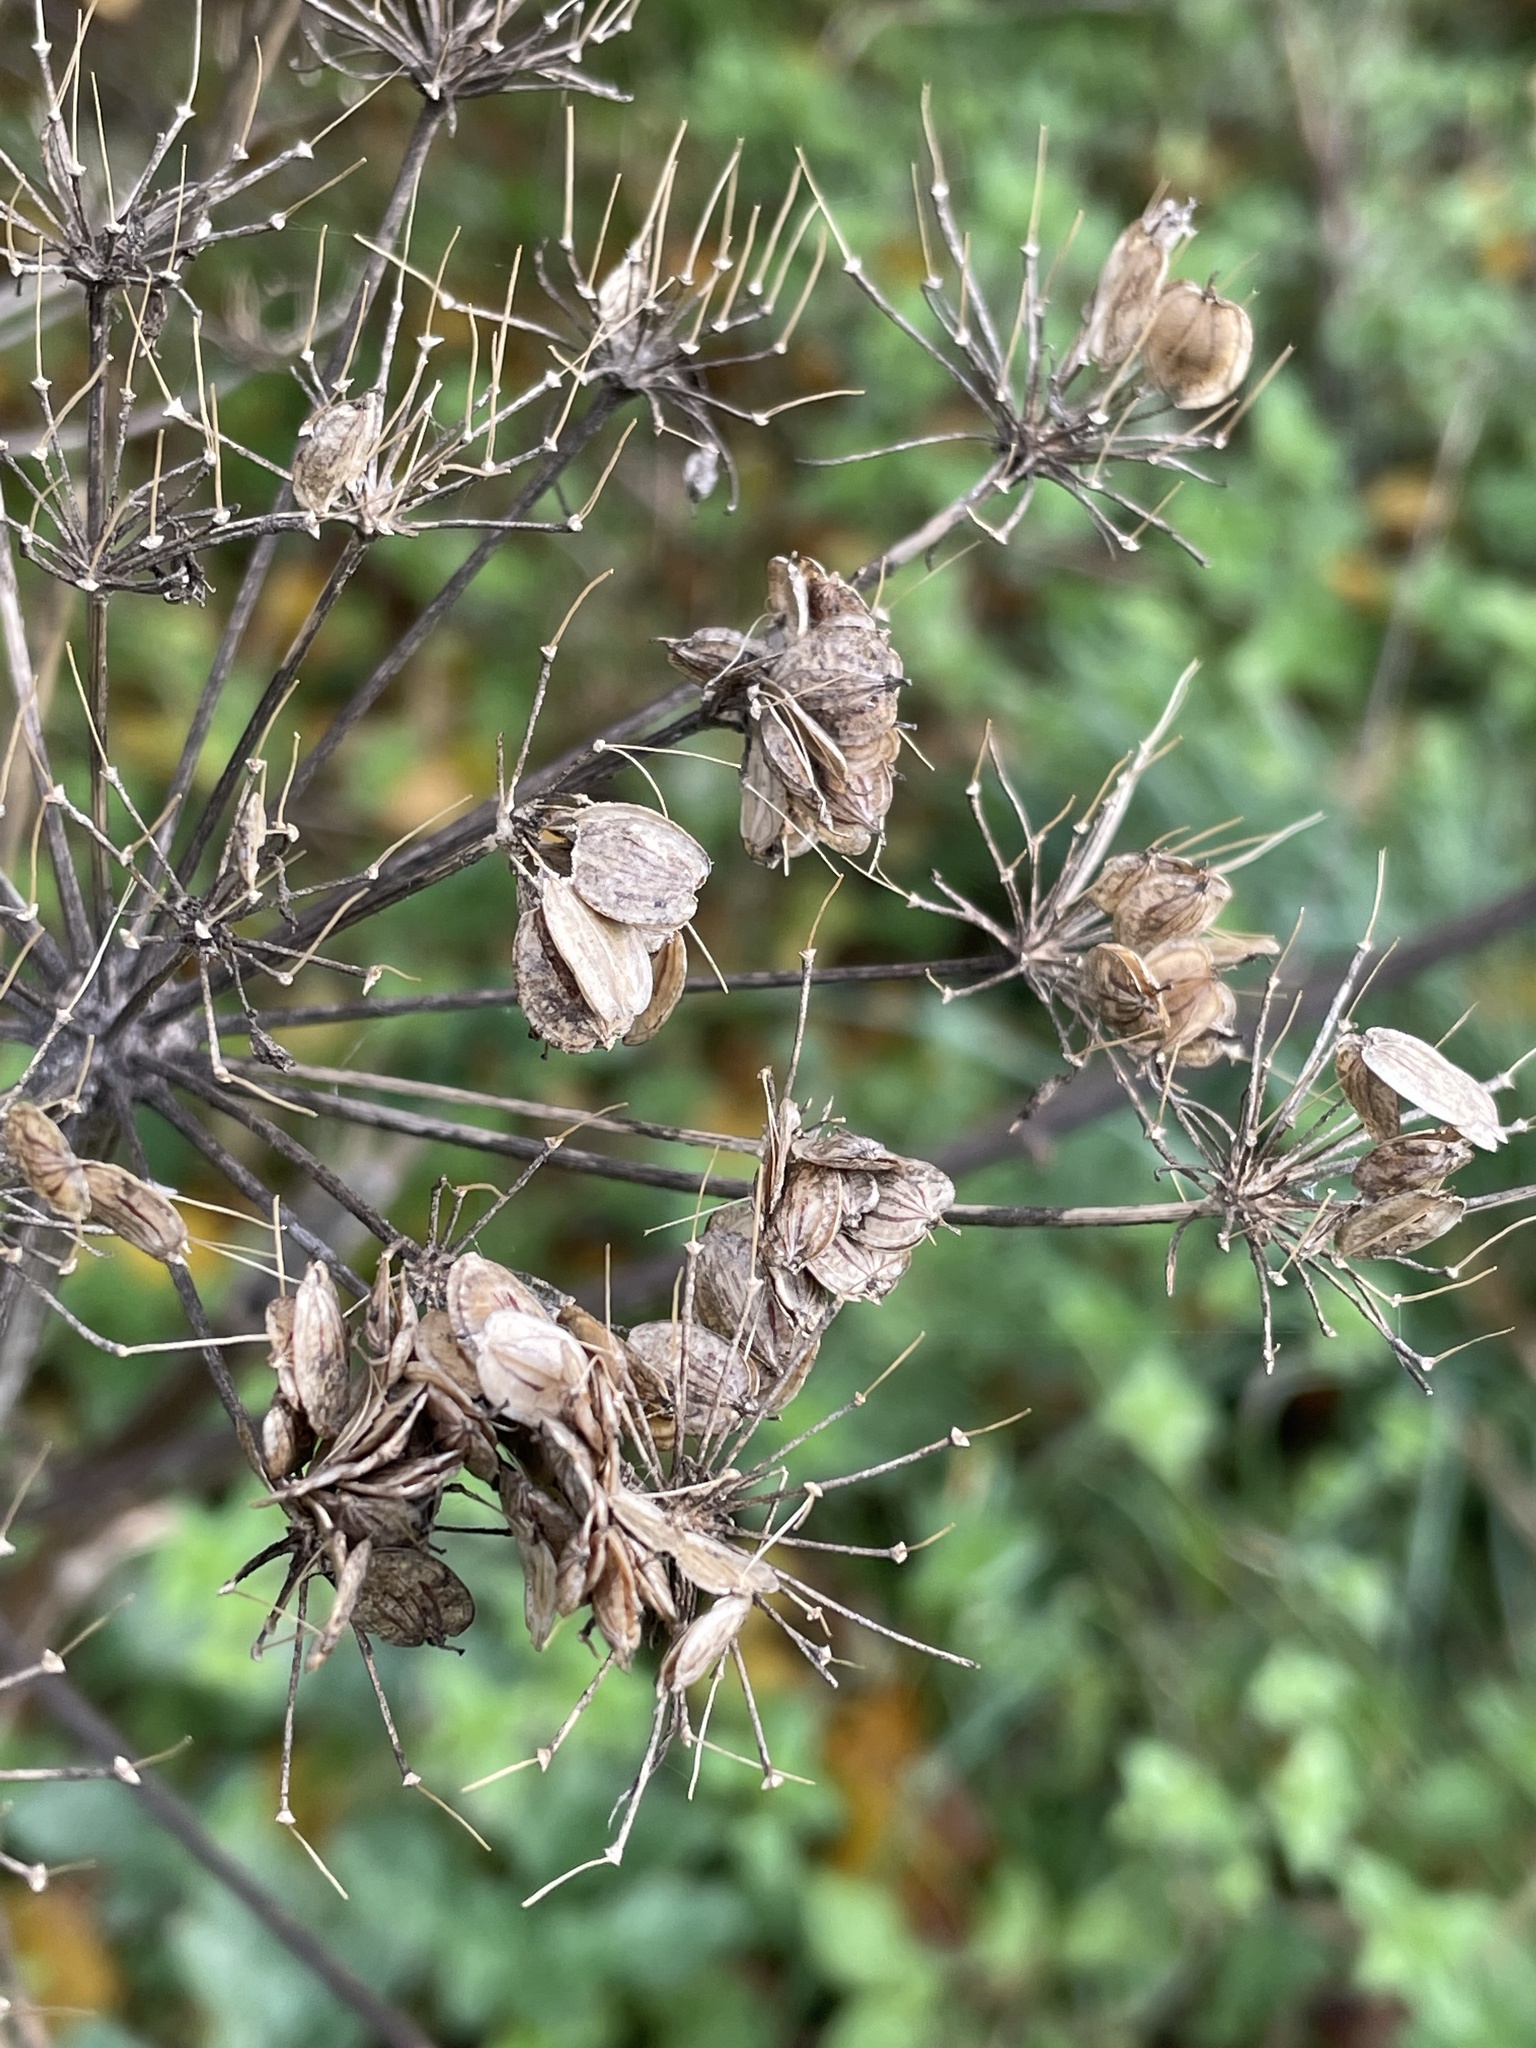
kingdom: Plantae
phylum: Tracheophyta
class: Magnoliopsida
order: Apiales
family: Apiaceae
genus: Heracleum
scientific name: Heracleum sphondylium
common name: Hogweed
